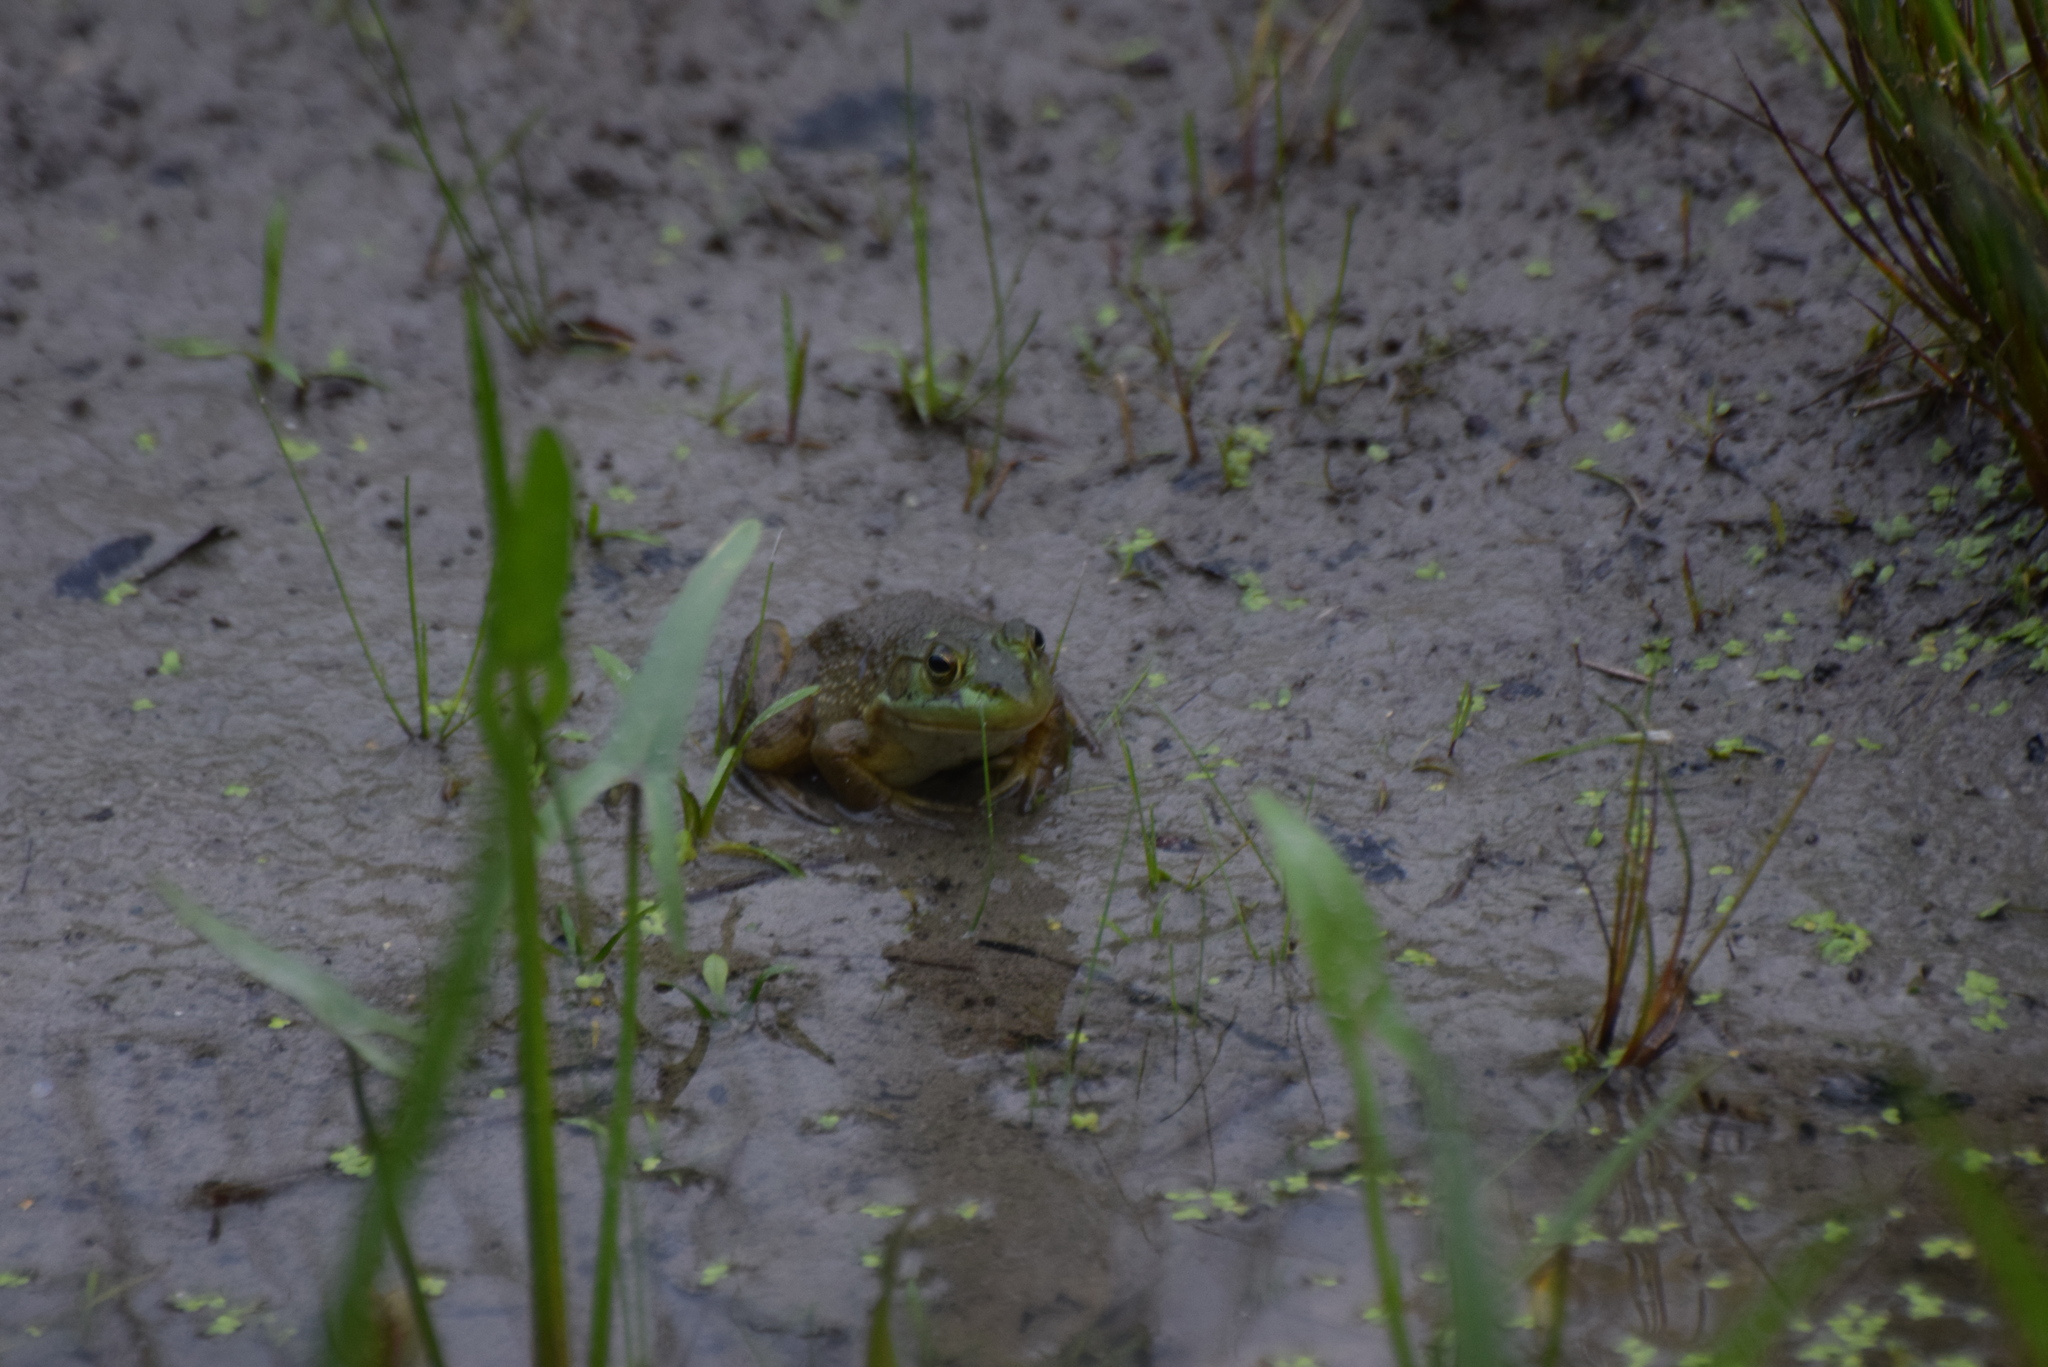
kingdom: Animalia
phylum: Chordata
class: Amphibia
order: Anura
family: Ranidae
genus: Lithobates
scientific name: Lithobates catesbeianus
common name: American bullfrog
